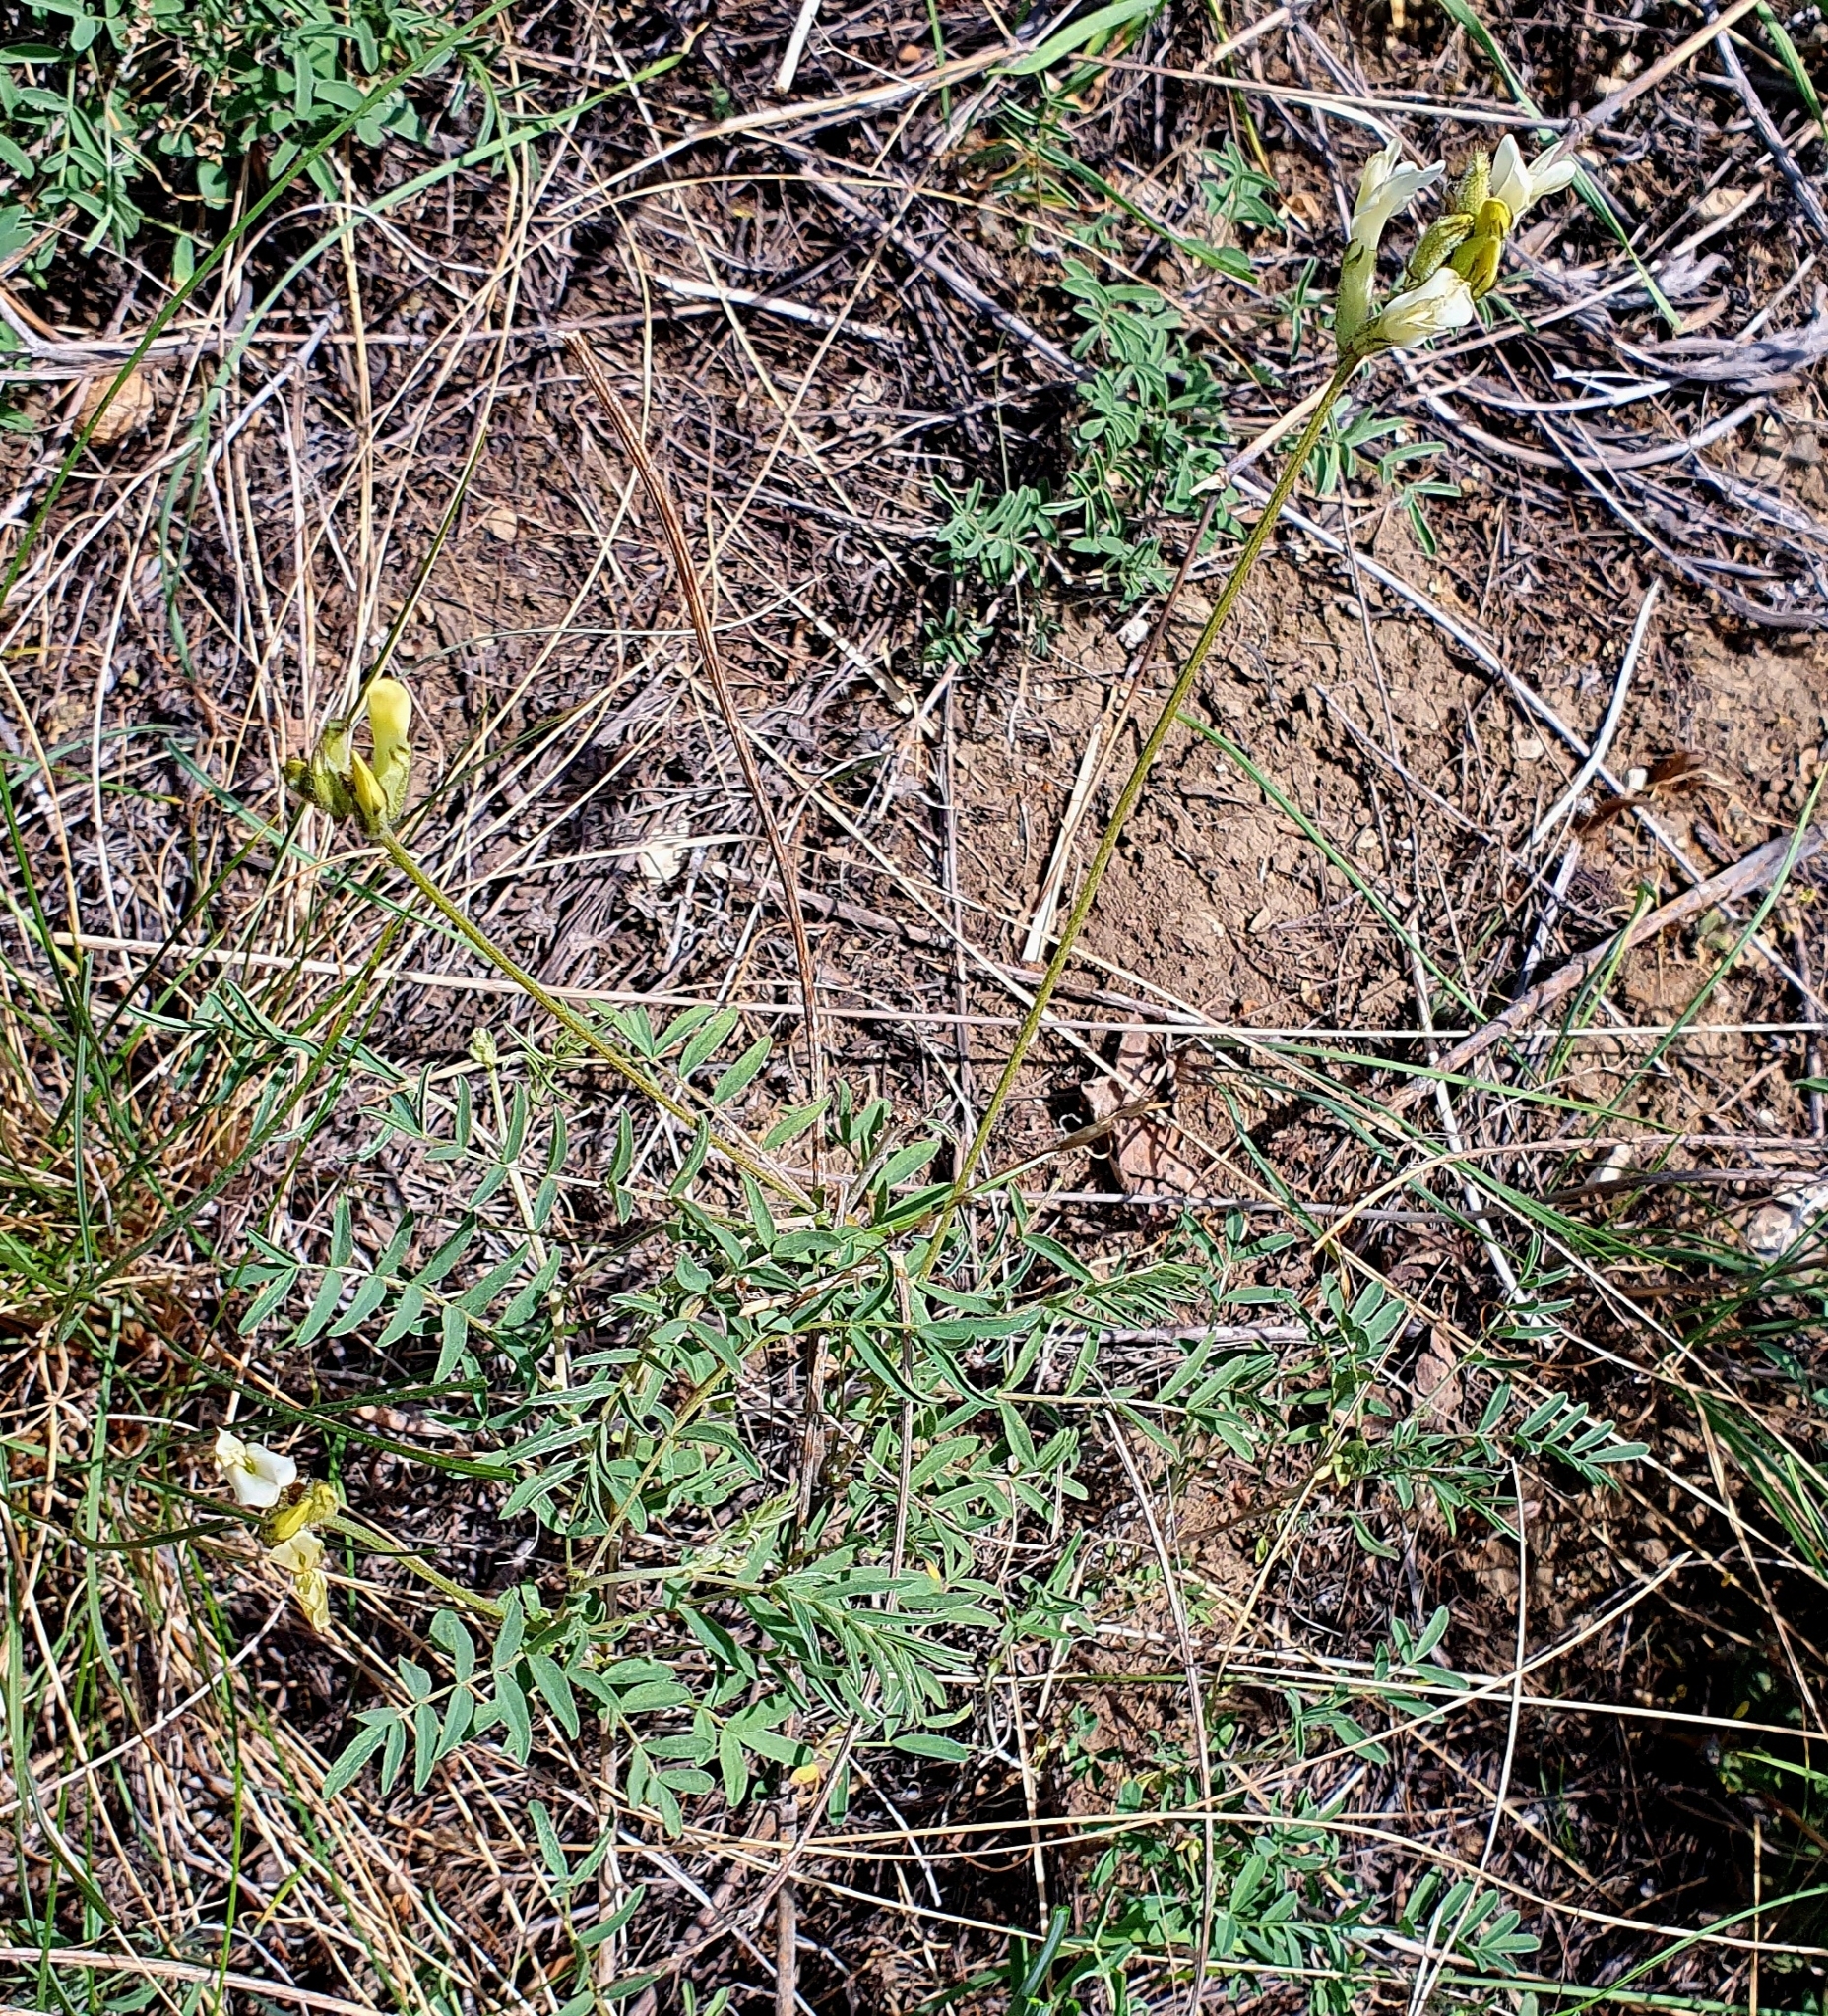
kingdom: Plantae
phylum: Tracheophyta
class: Magnoliopsida
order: Fabales
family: Fabaceae
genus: Astragalus
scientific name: Astragalus zingeri
